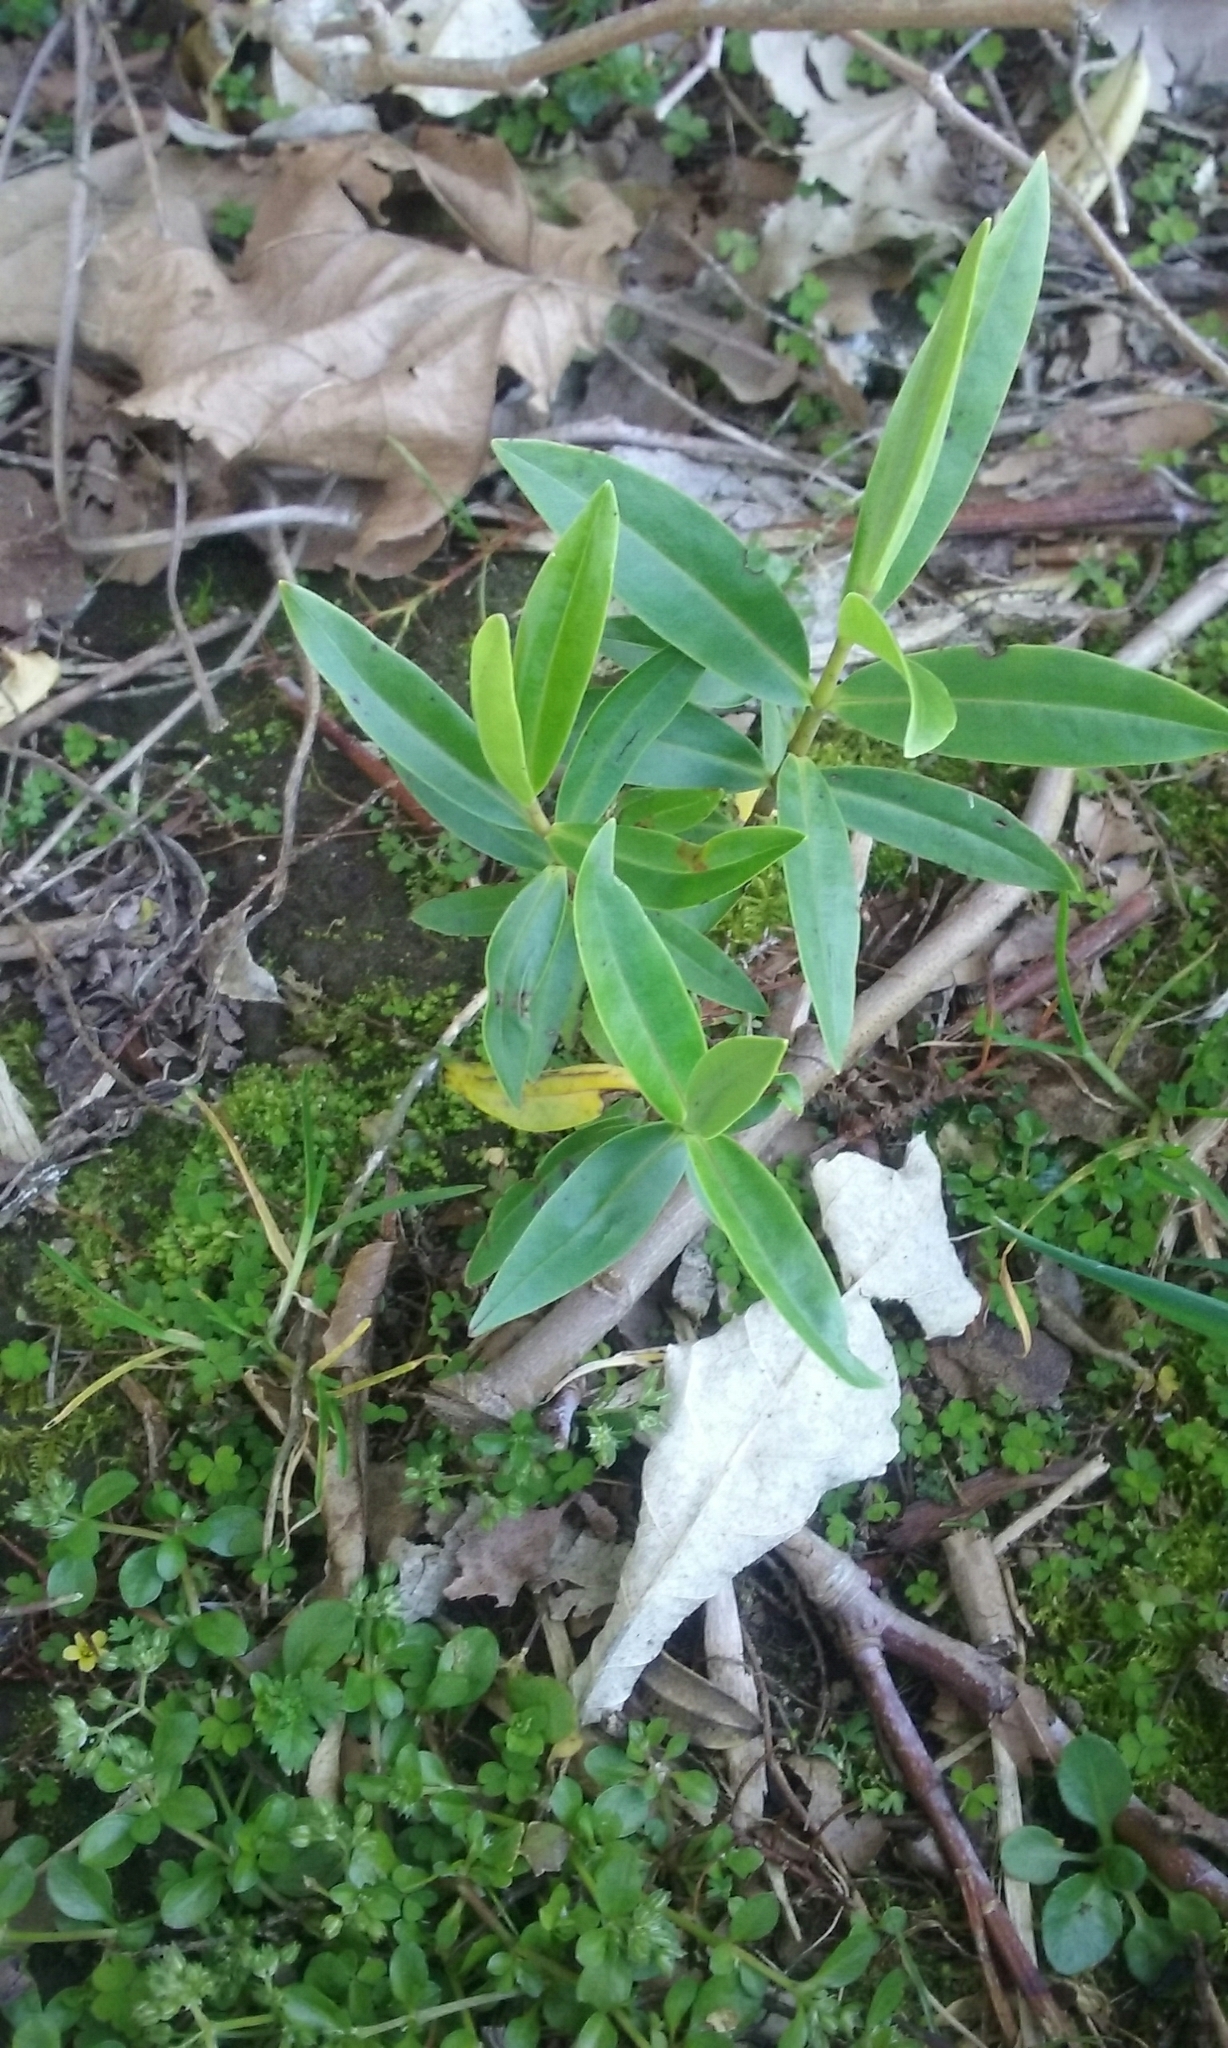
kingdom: Plantae
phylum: Tracheophyta
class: Magnoliopsida
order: Lamiales
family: Plantaginaceae
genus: Veronica
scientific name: Veronica stricta
